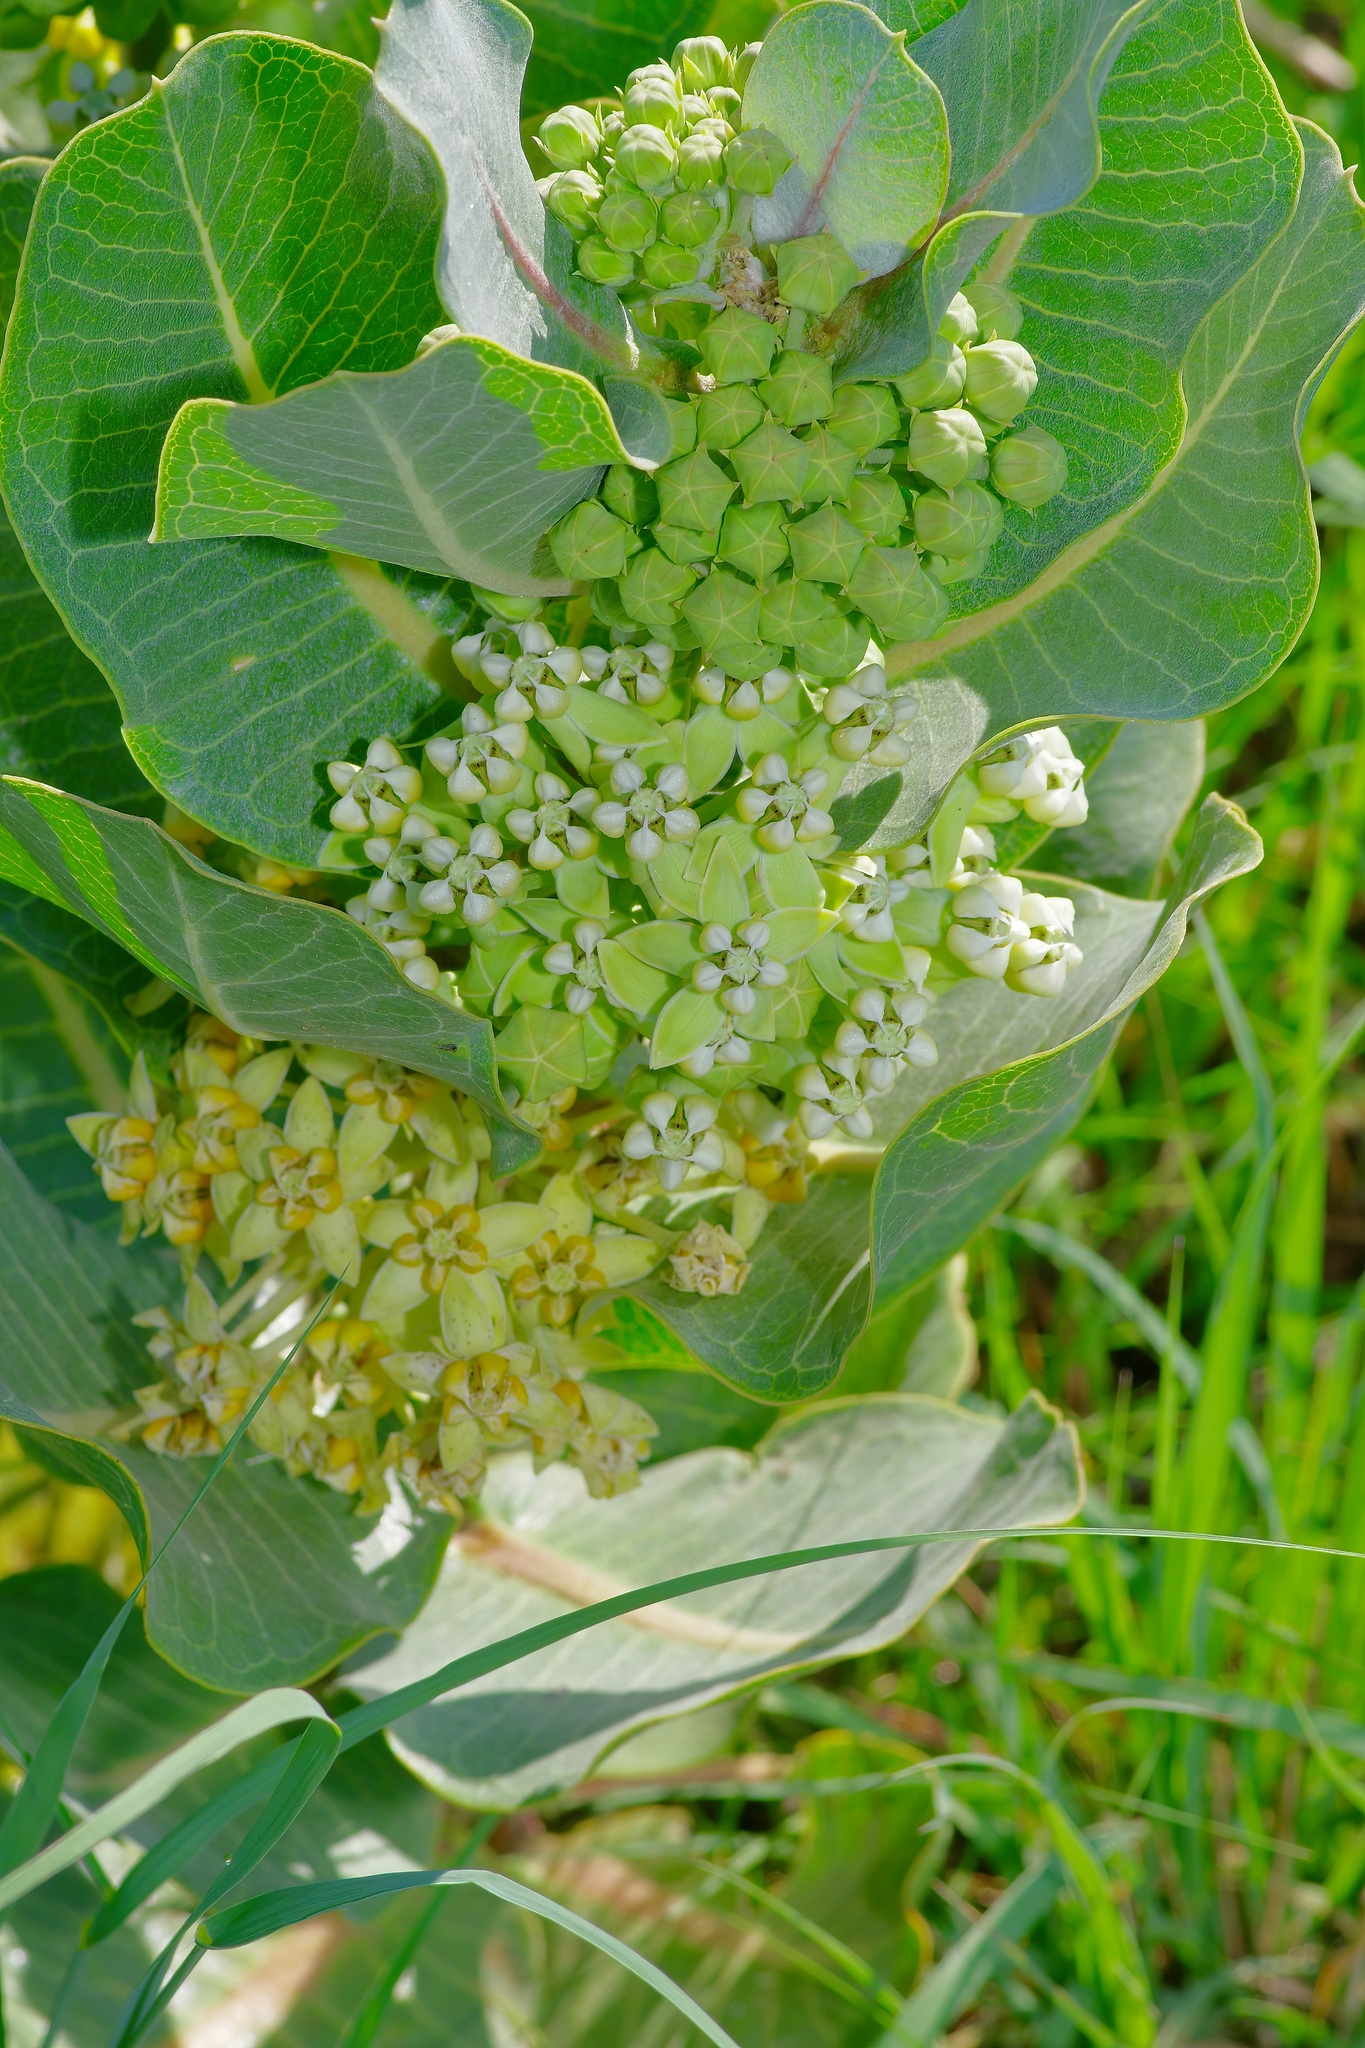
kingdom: Plantae
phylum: Tracheophyta
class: Magnoliopsida
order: Gentianales
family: Apocynaceae
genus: Asclepias
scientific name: Asclepias latifolia
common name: Broadleaf milkweed
